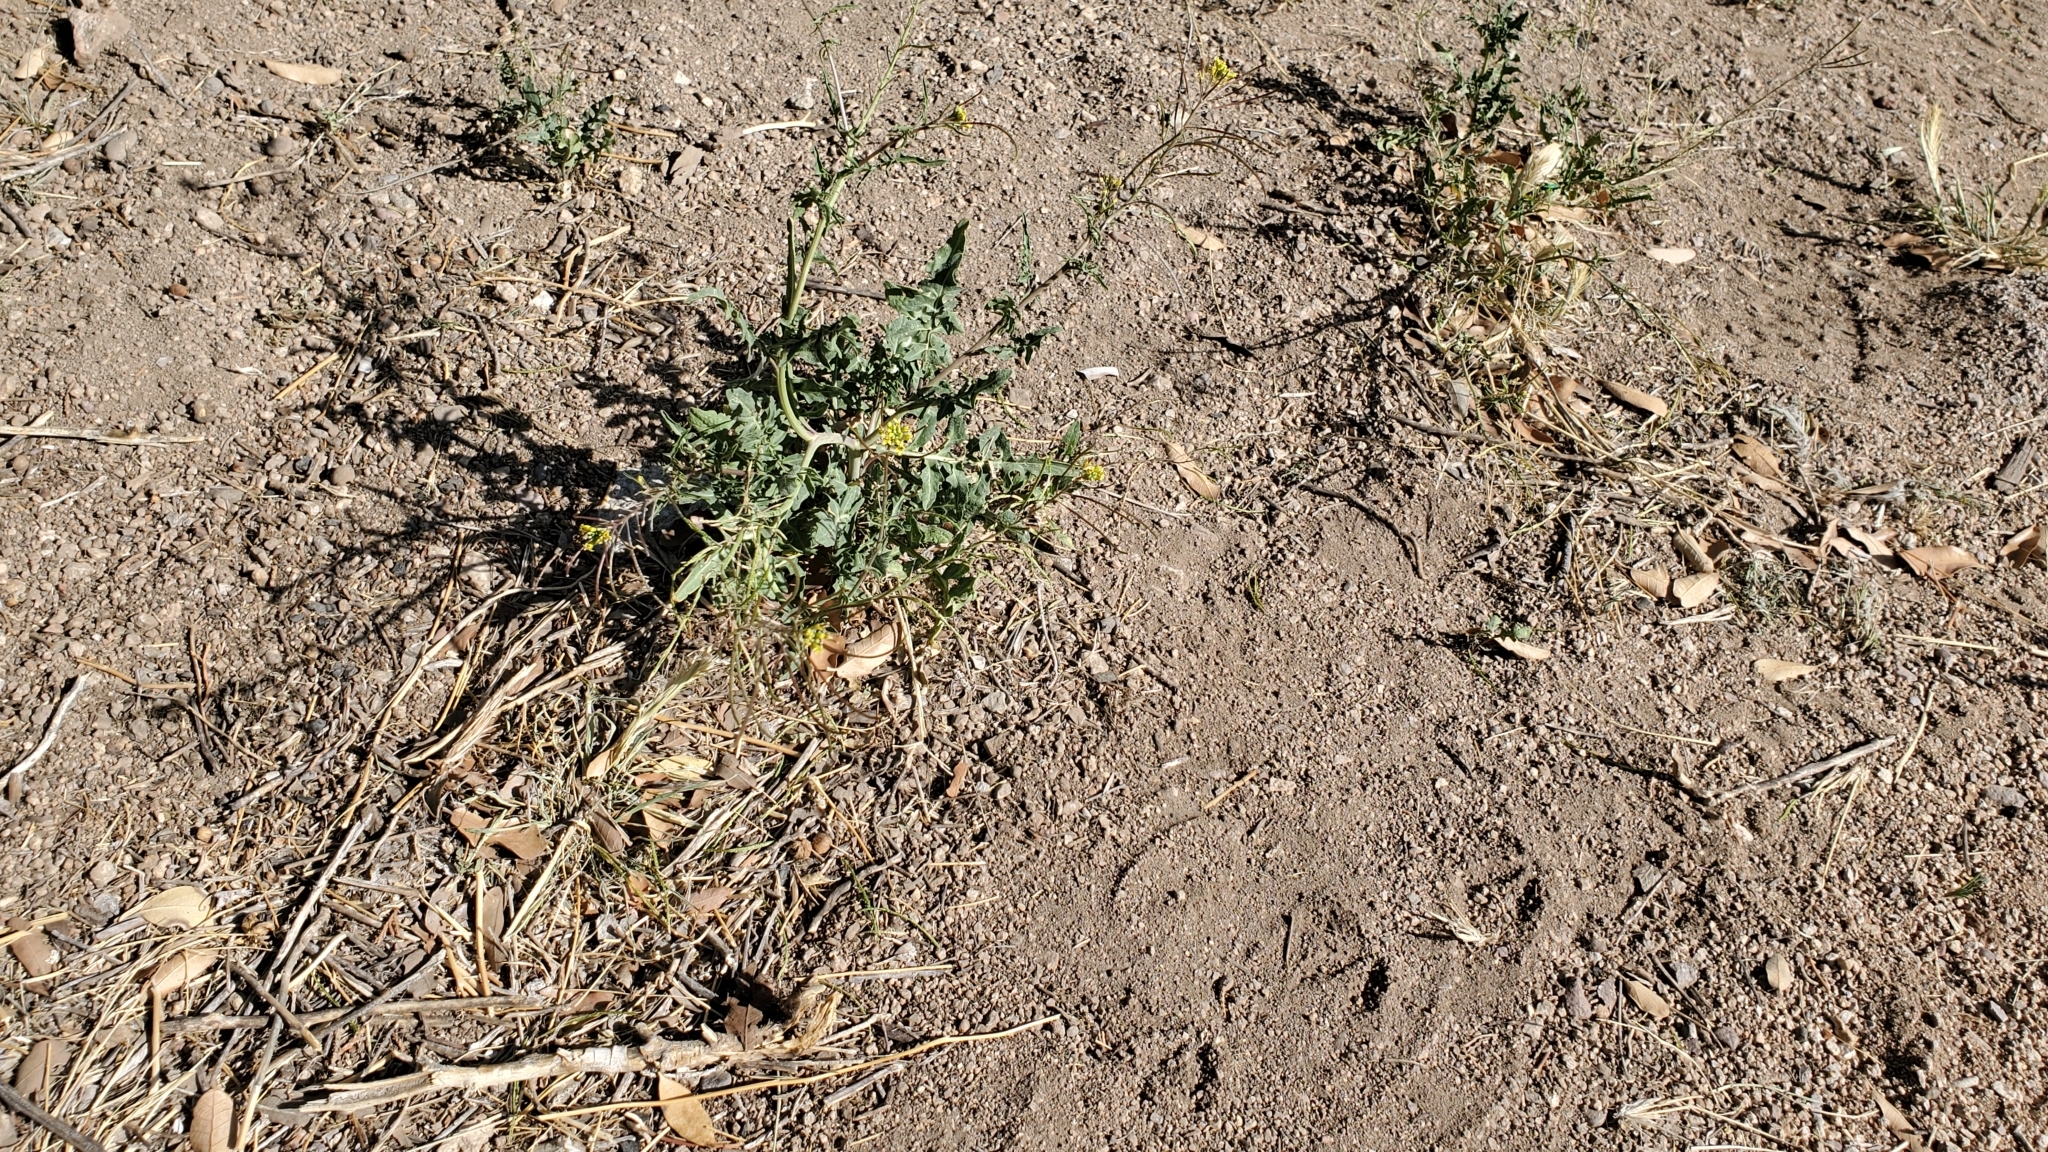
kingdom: Plantae
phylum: Tracheophyta
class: Magnoliopsida
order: Brassicales
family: Brassicaceae
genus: Sisymbrium
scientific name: Sisymbrium irio
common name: London rocket
